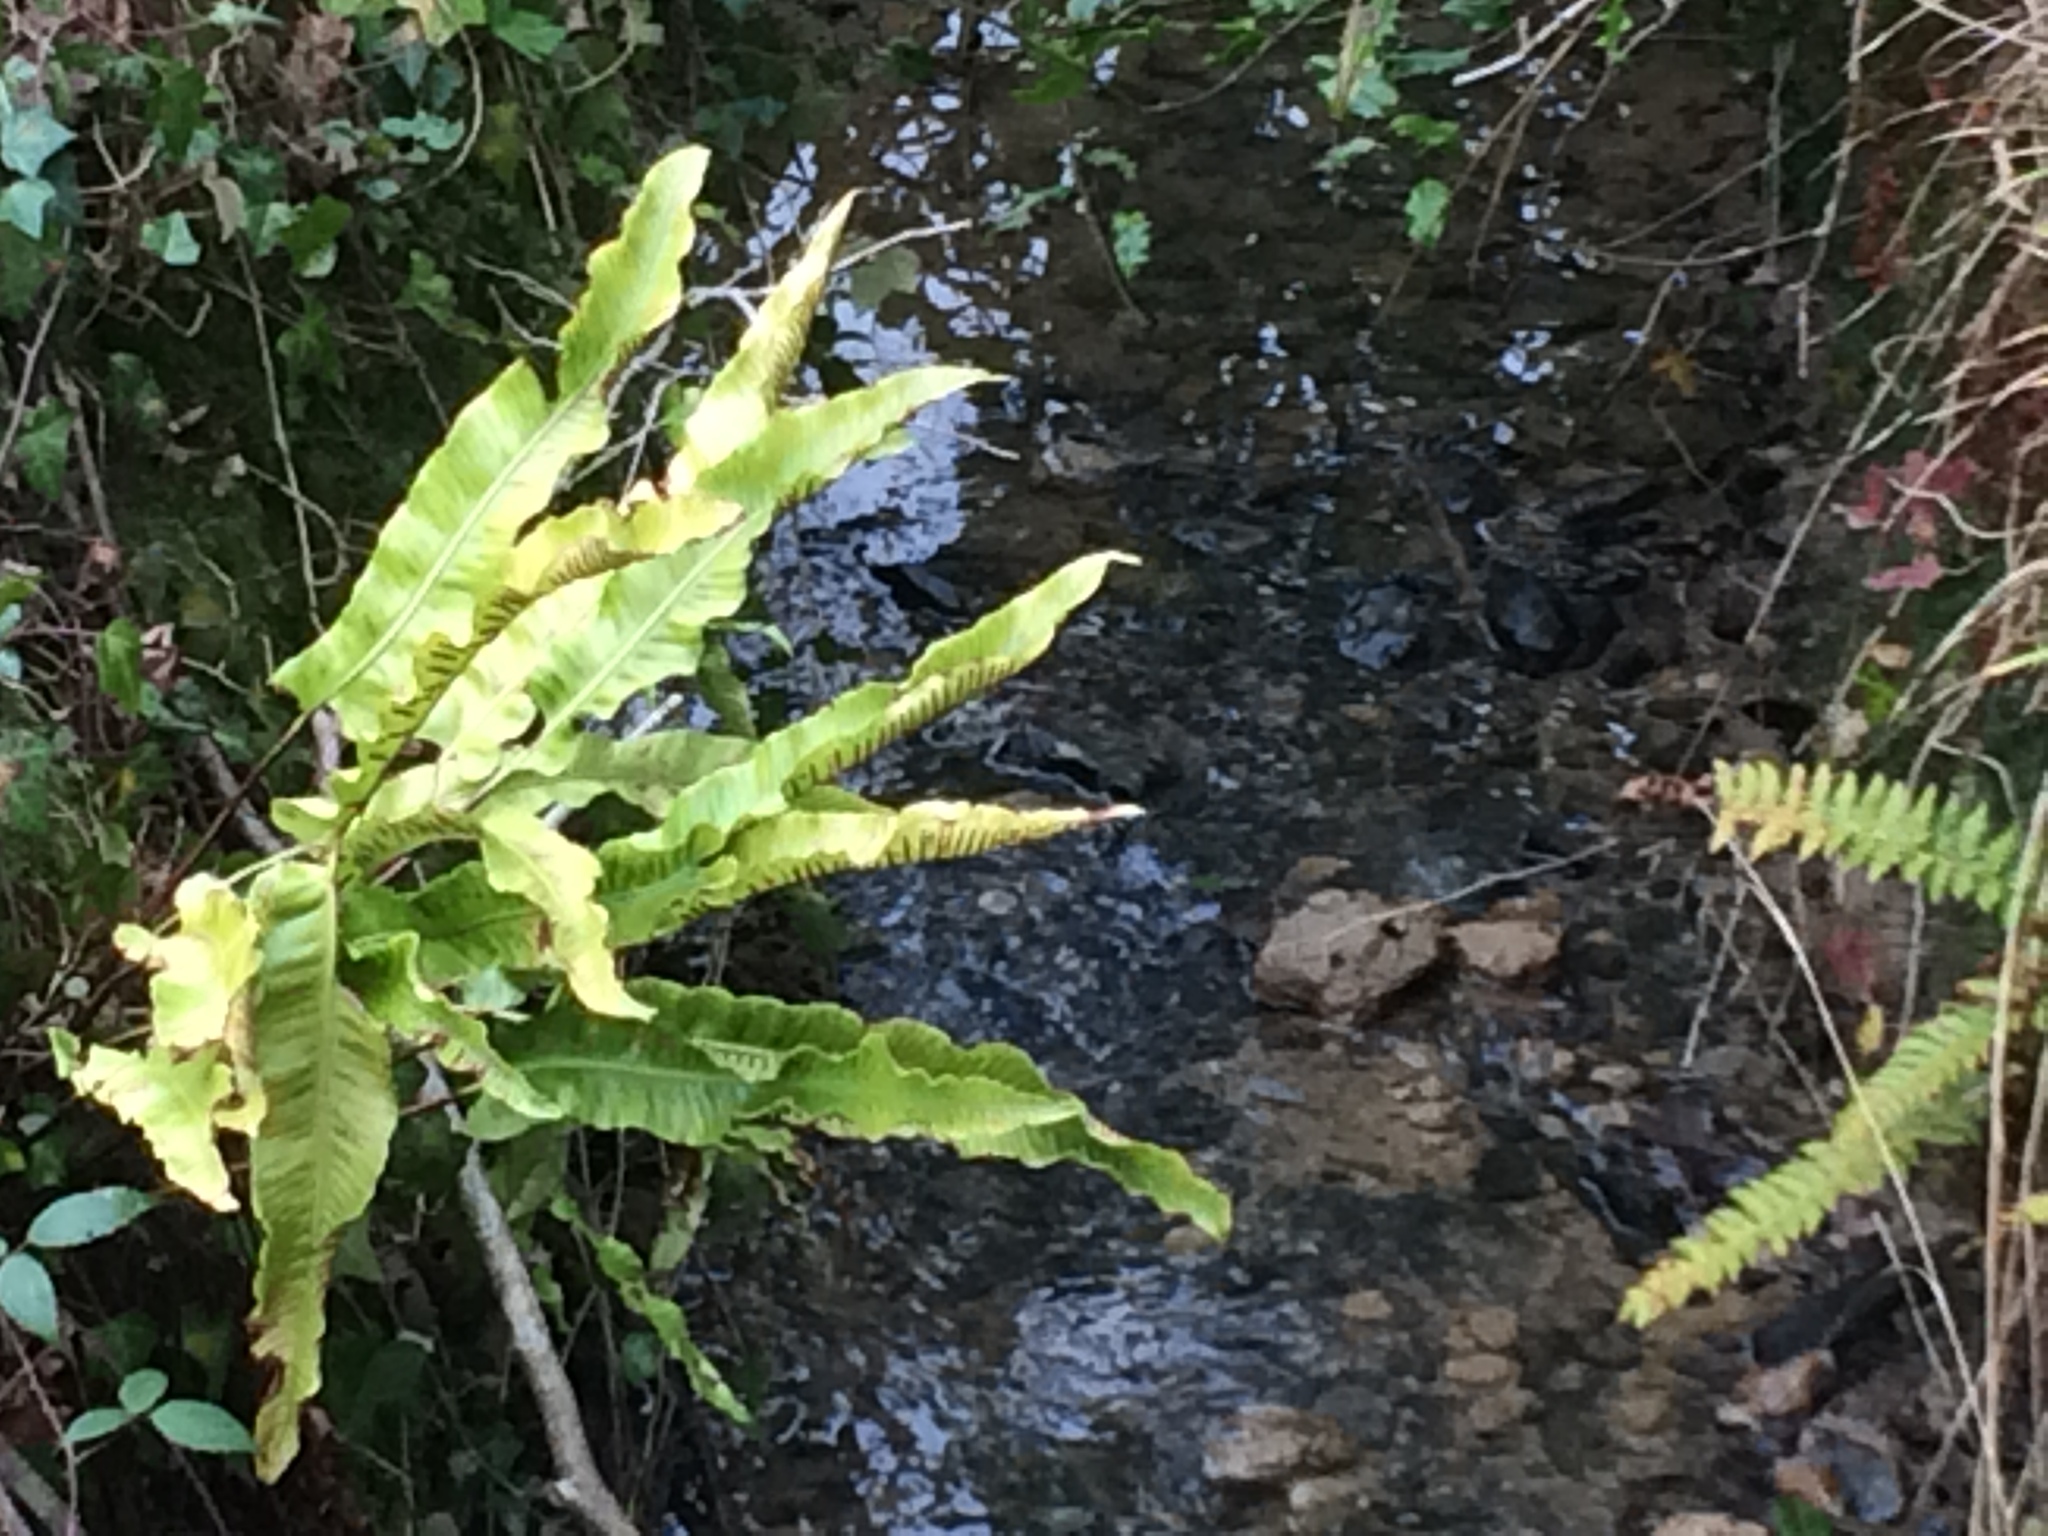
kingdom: Plantae
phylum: Tracheophyta
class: Polypodiopsida
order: Polypodiales
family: Aspleniaceae
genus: Asplenium
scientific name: Asplenium scolopendrium
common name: Hart's-tongue fern
